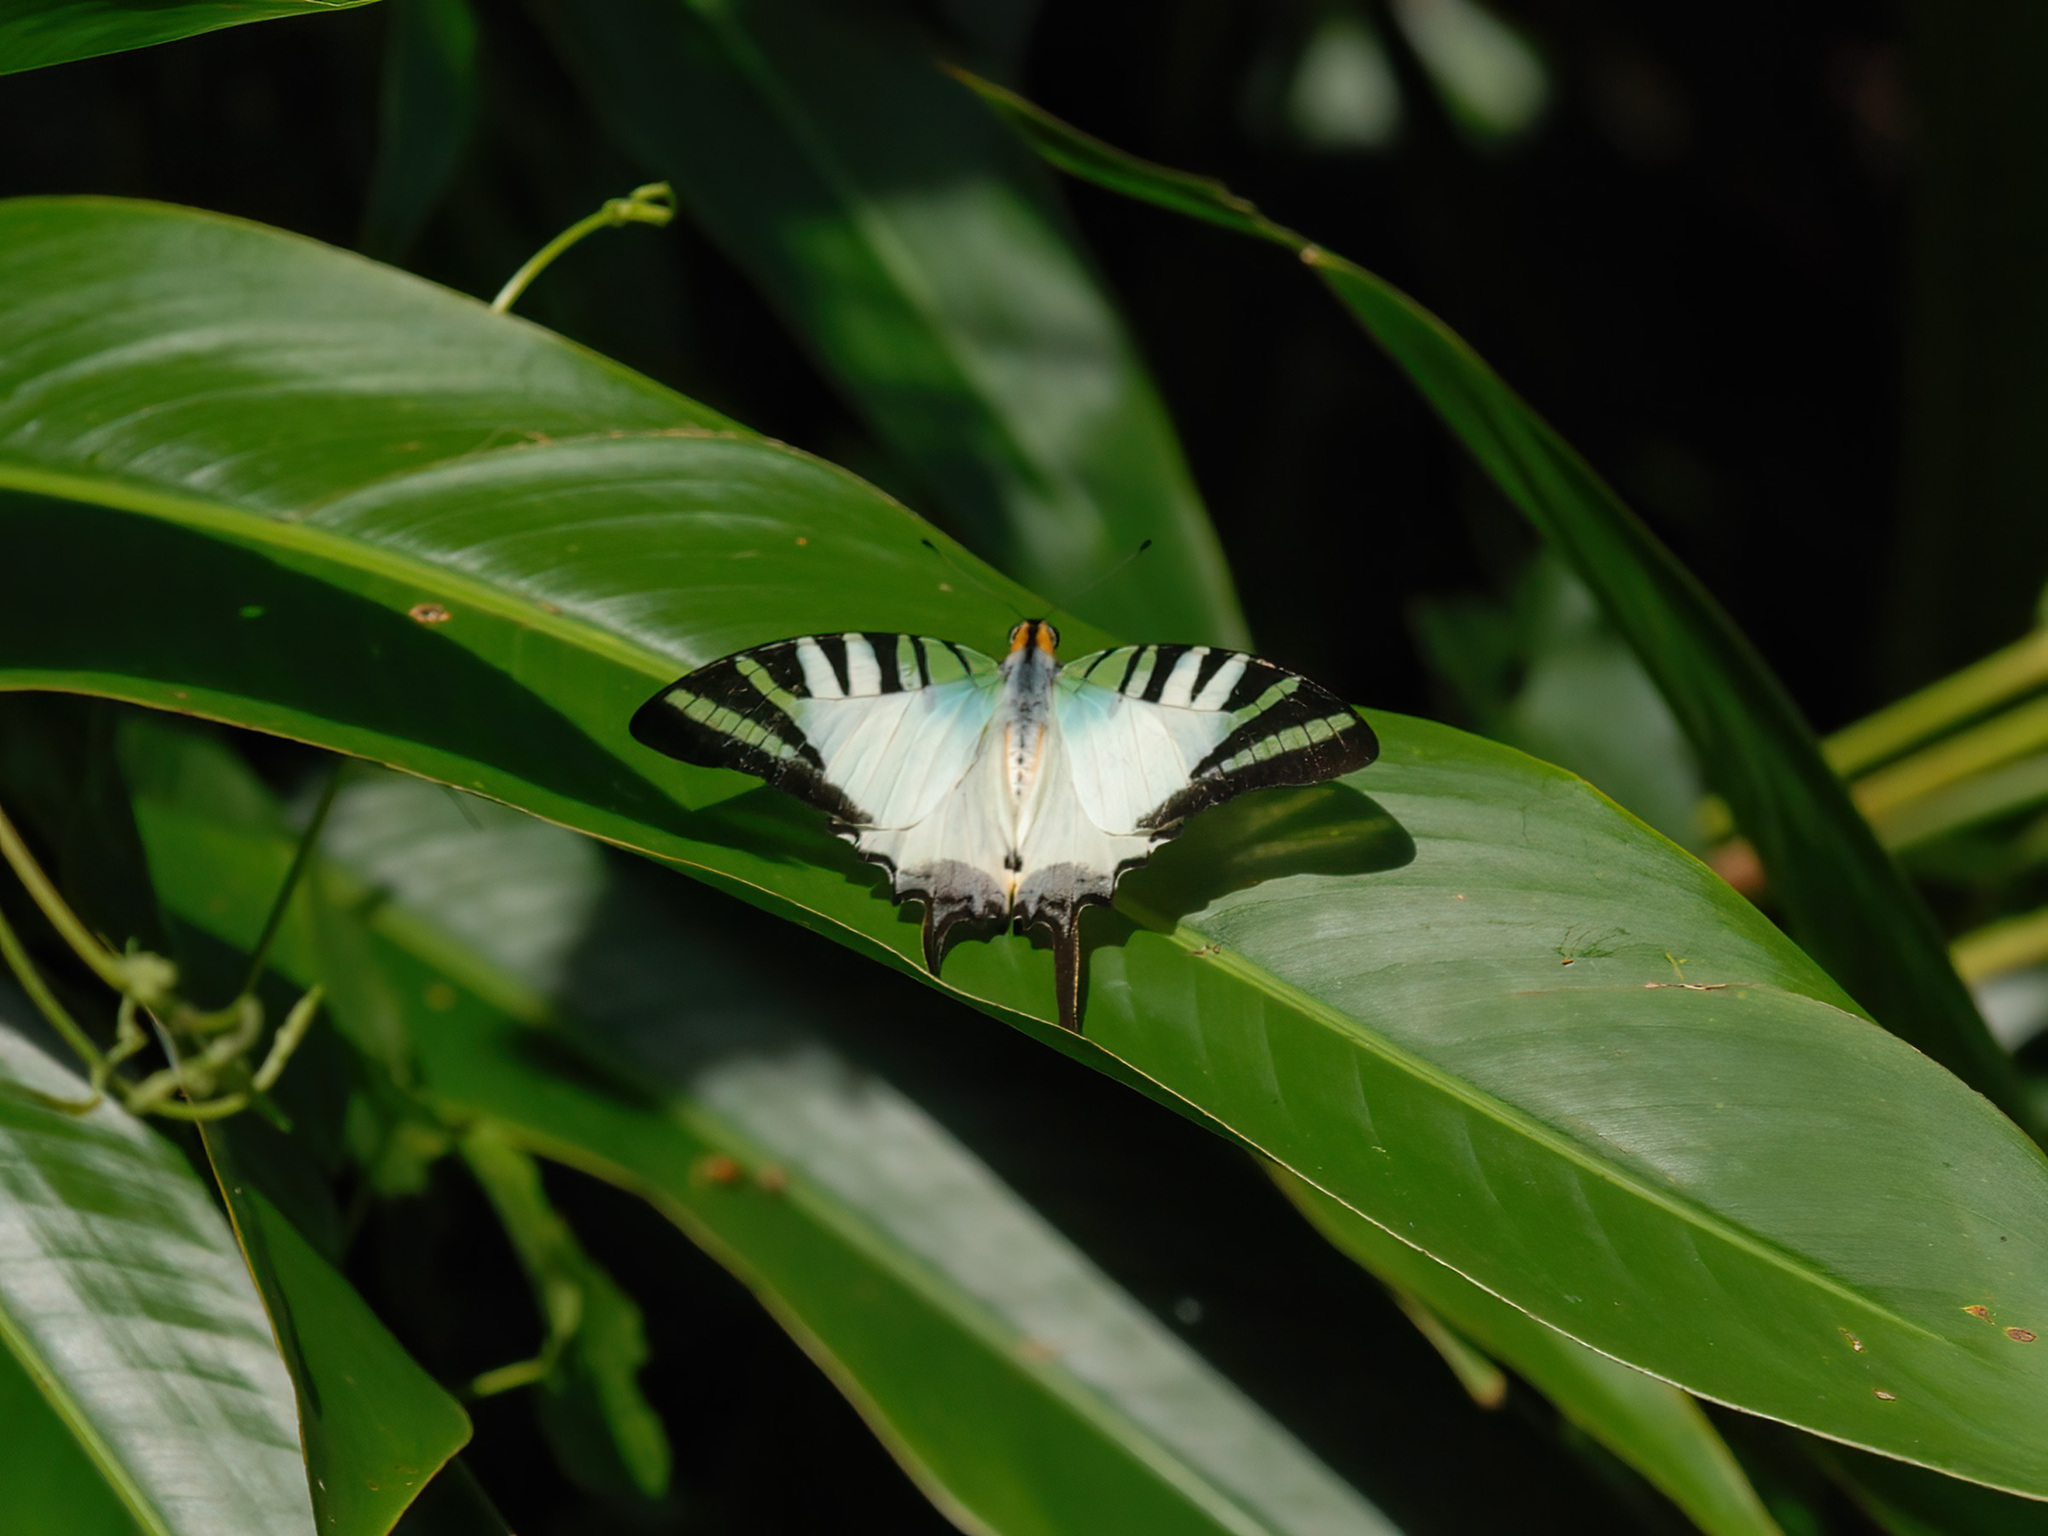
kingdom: Animalia
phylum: Arthropoda
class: Insecta
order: Lepidoptera
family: Papilionidae
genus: Graphium
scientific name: Graphium antiphates
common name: Fivebar swordtail
